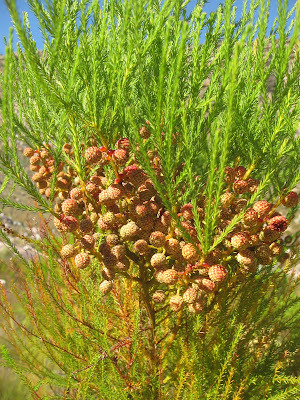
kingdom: Plantae
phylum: Tracheophyta
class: Magnoliopsida
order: Bruniales
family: Bruniaceae
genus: Berzelia
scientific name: Berzelia lanuginosa
